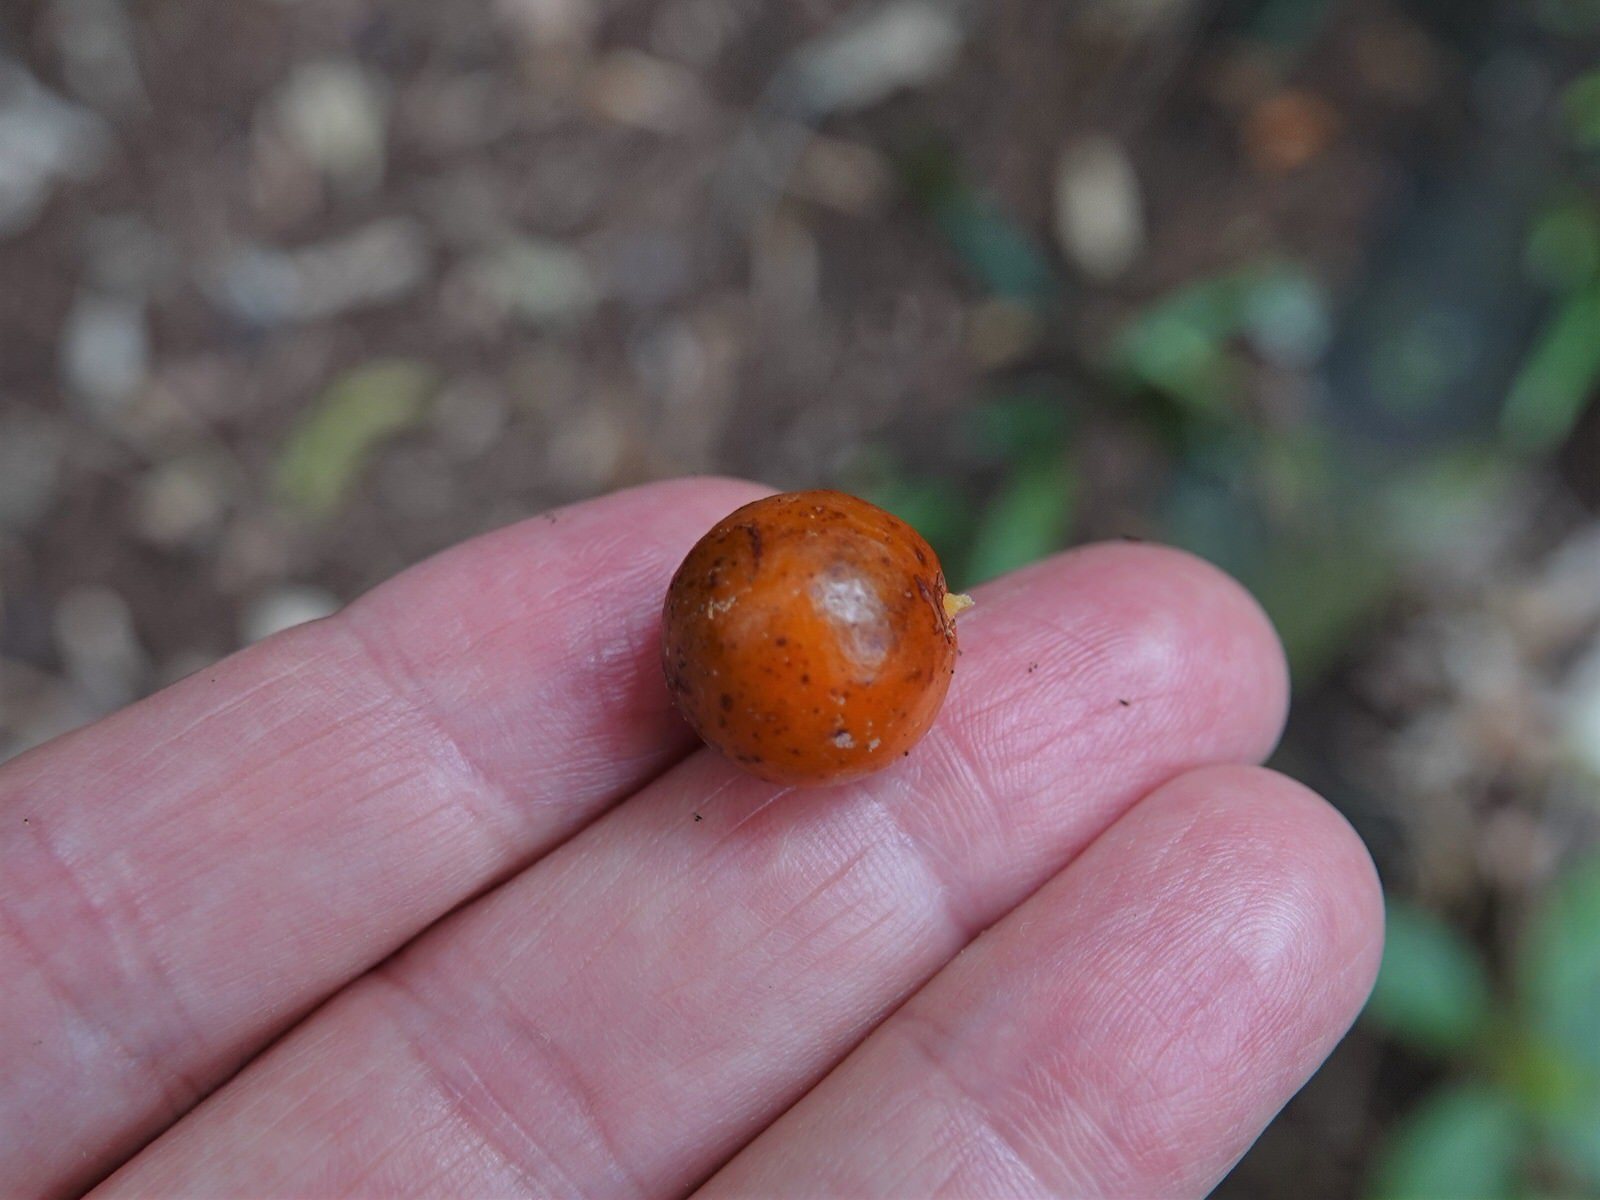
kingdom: Plantae
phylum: Tracheophyta
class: Liliopsida
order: Liliales
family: Ripogonaceae
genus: Ripogonum
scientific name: Ripogonum scandens
